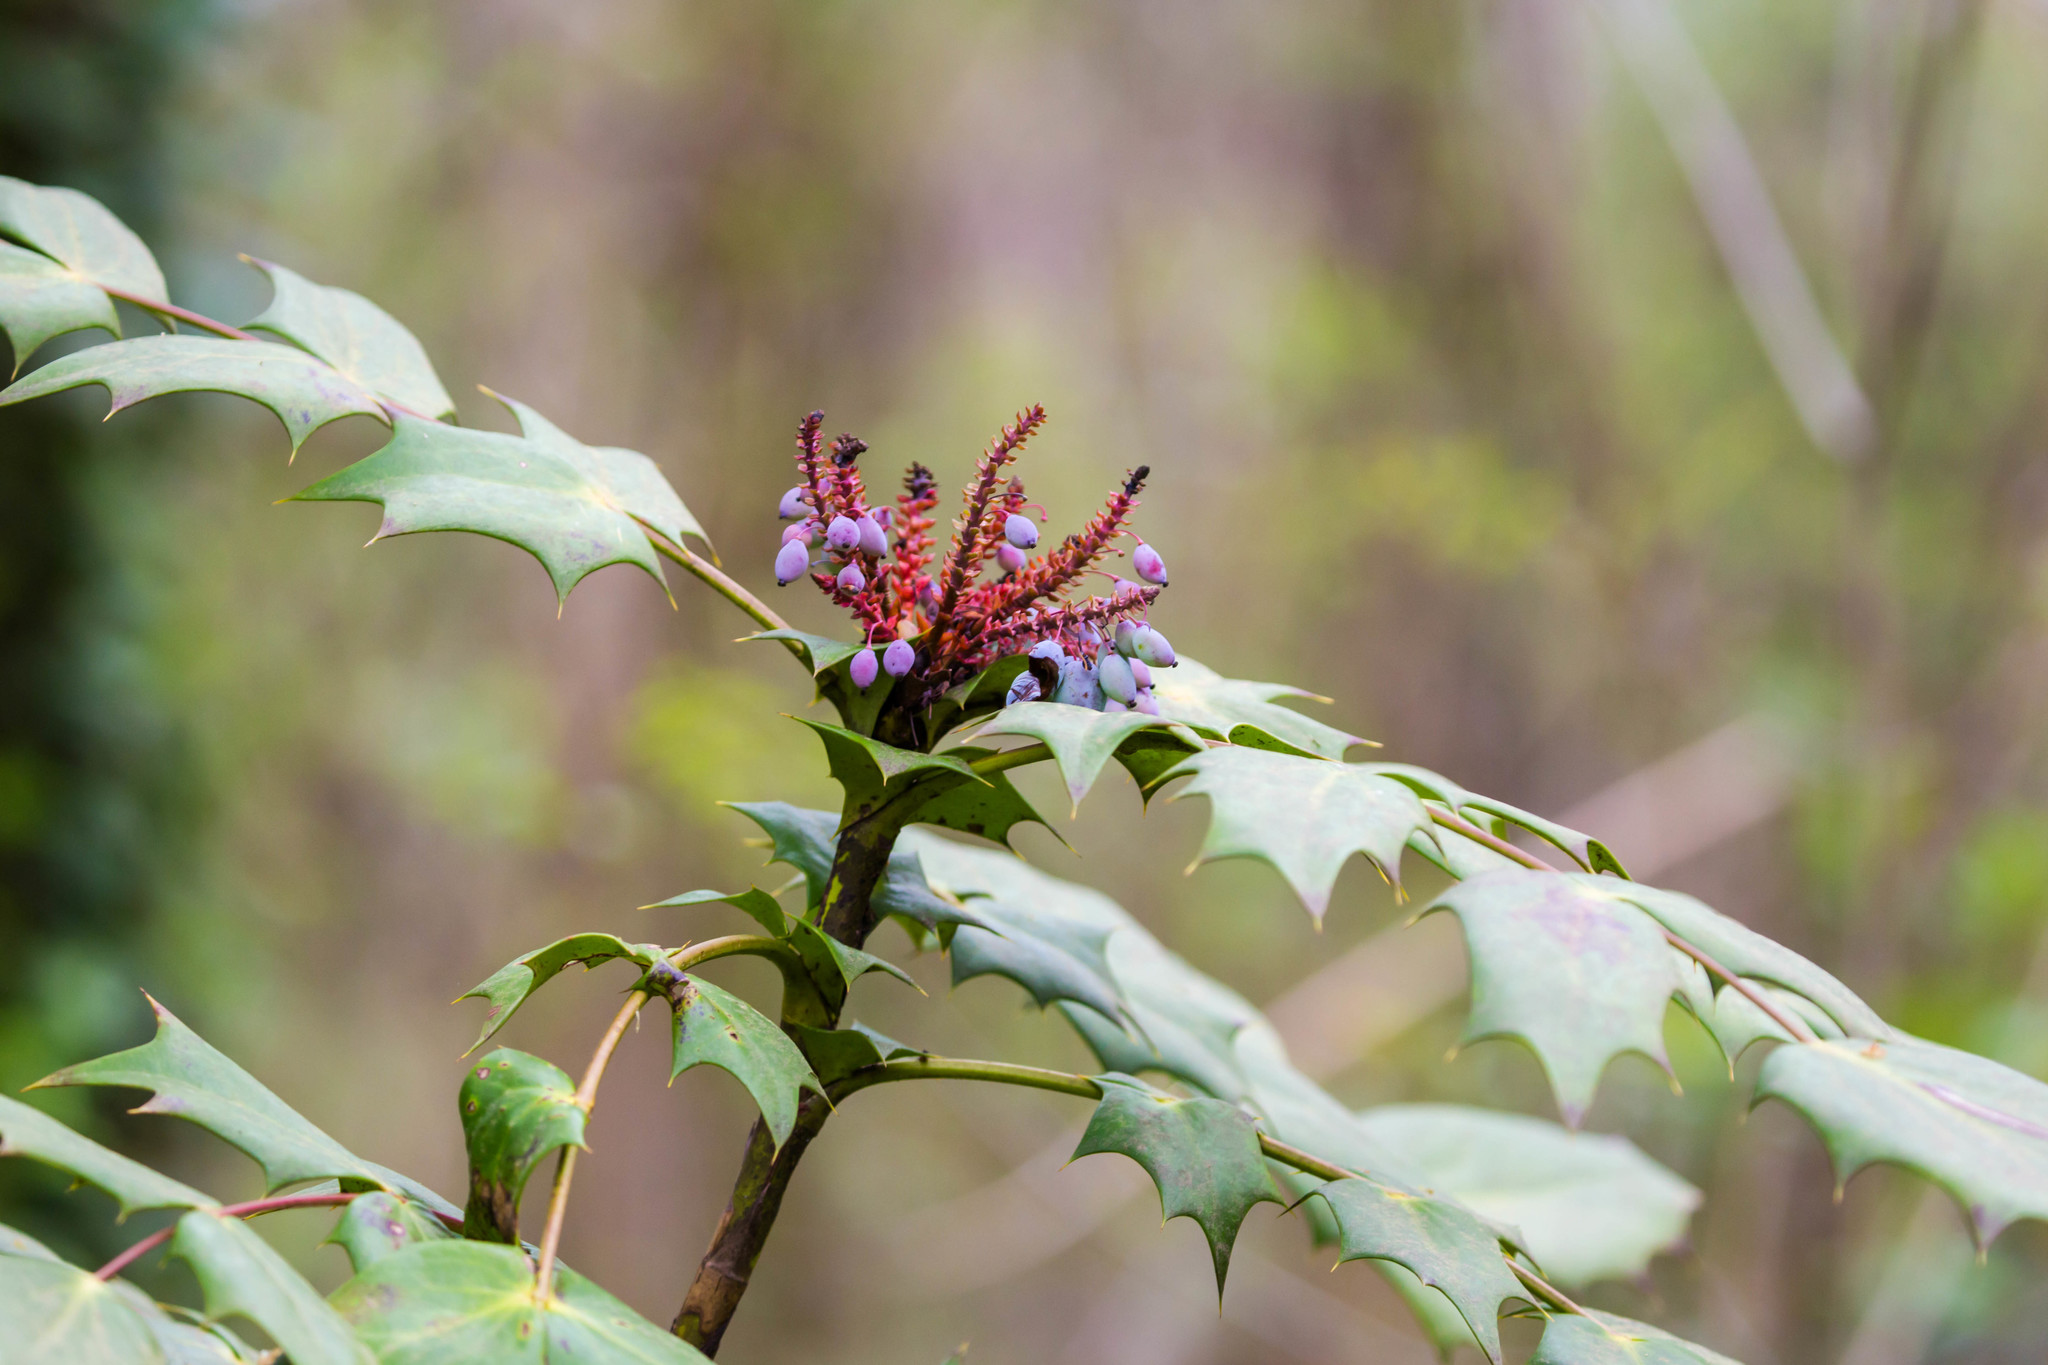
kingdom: Plantae
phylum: Tracheophyta
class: Magnoliopsida
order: Ranunculales
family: Berberidaceae
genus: Mahonia
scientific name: Mahonia bealei
